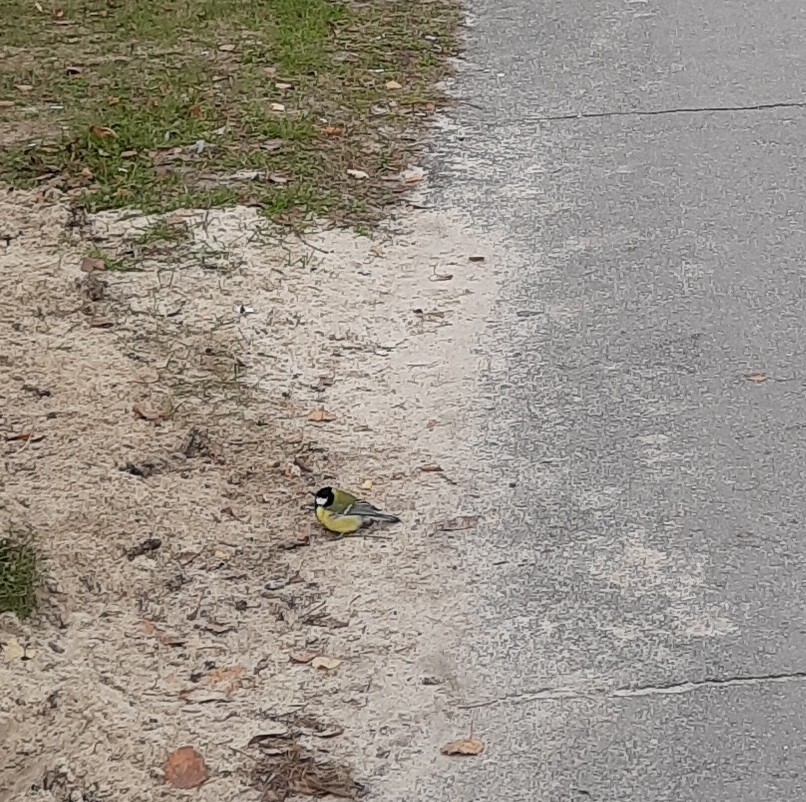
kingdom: Animalia
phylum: Chordata
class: Aves
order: Passeriformes
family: Paridae
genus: Parus
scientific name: Parus major
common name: Great tit
